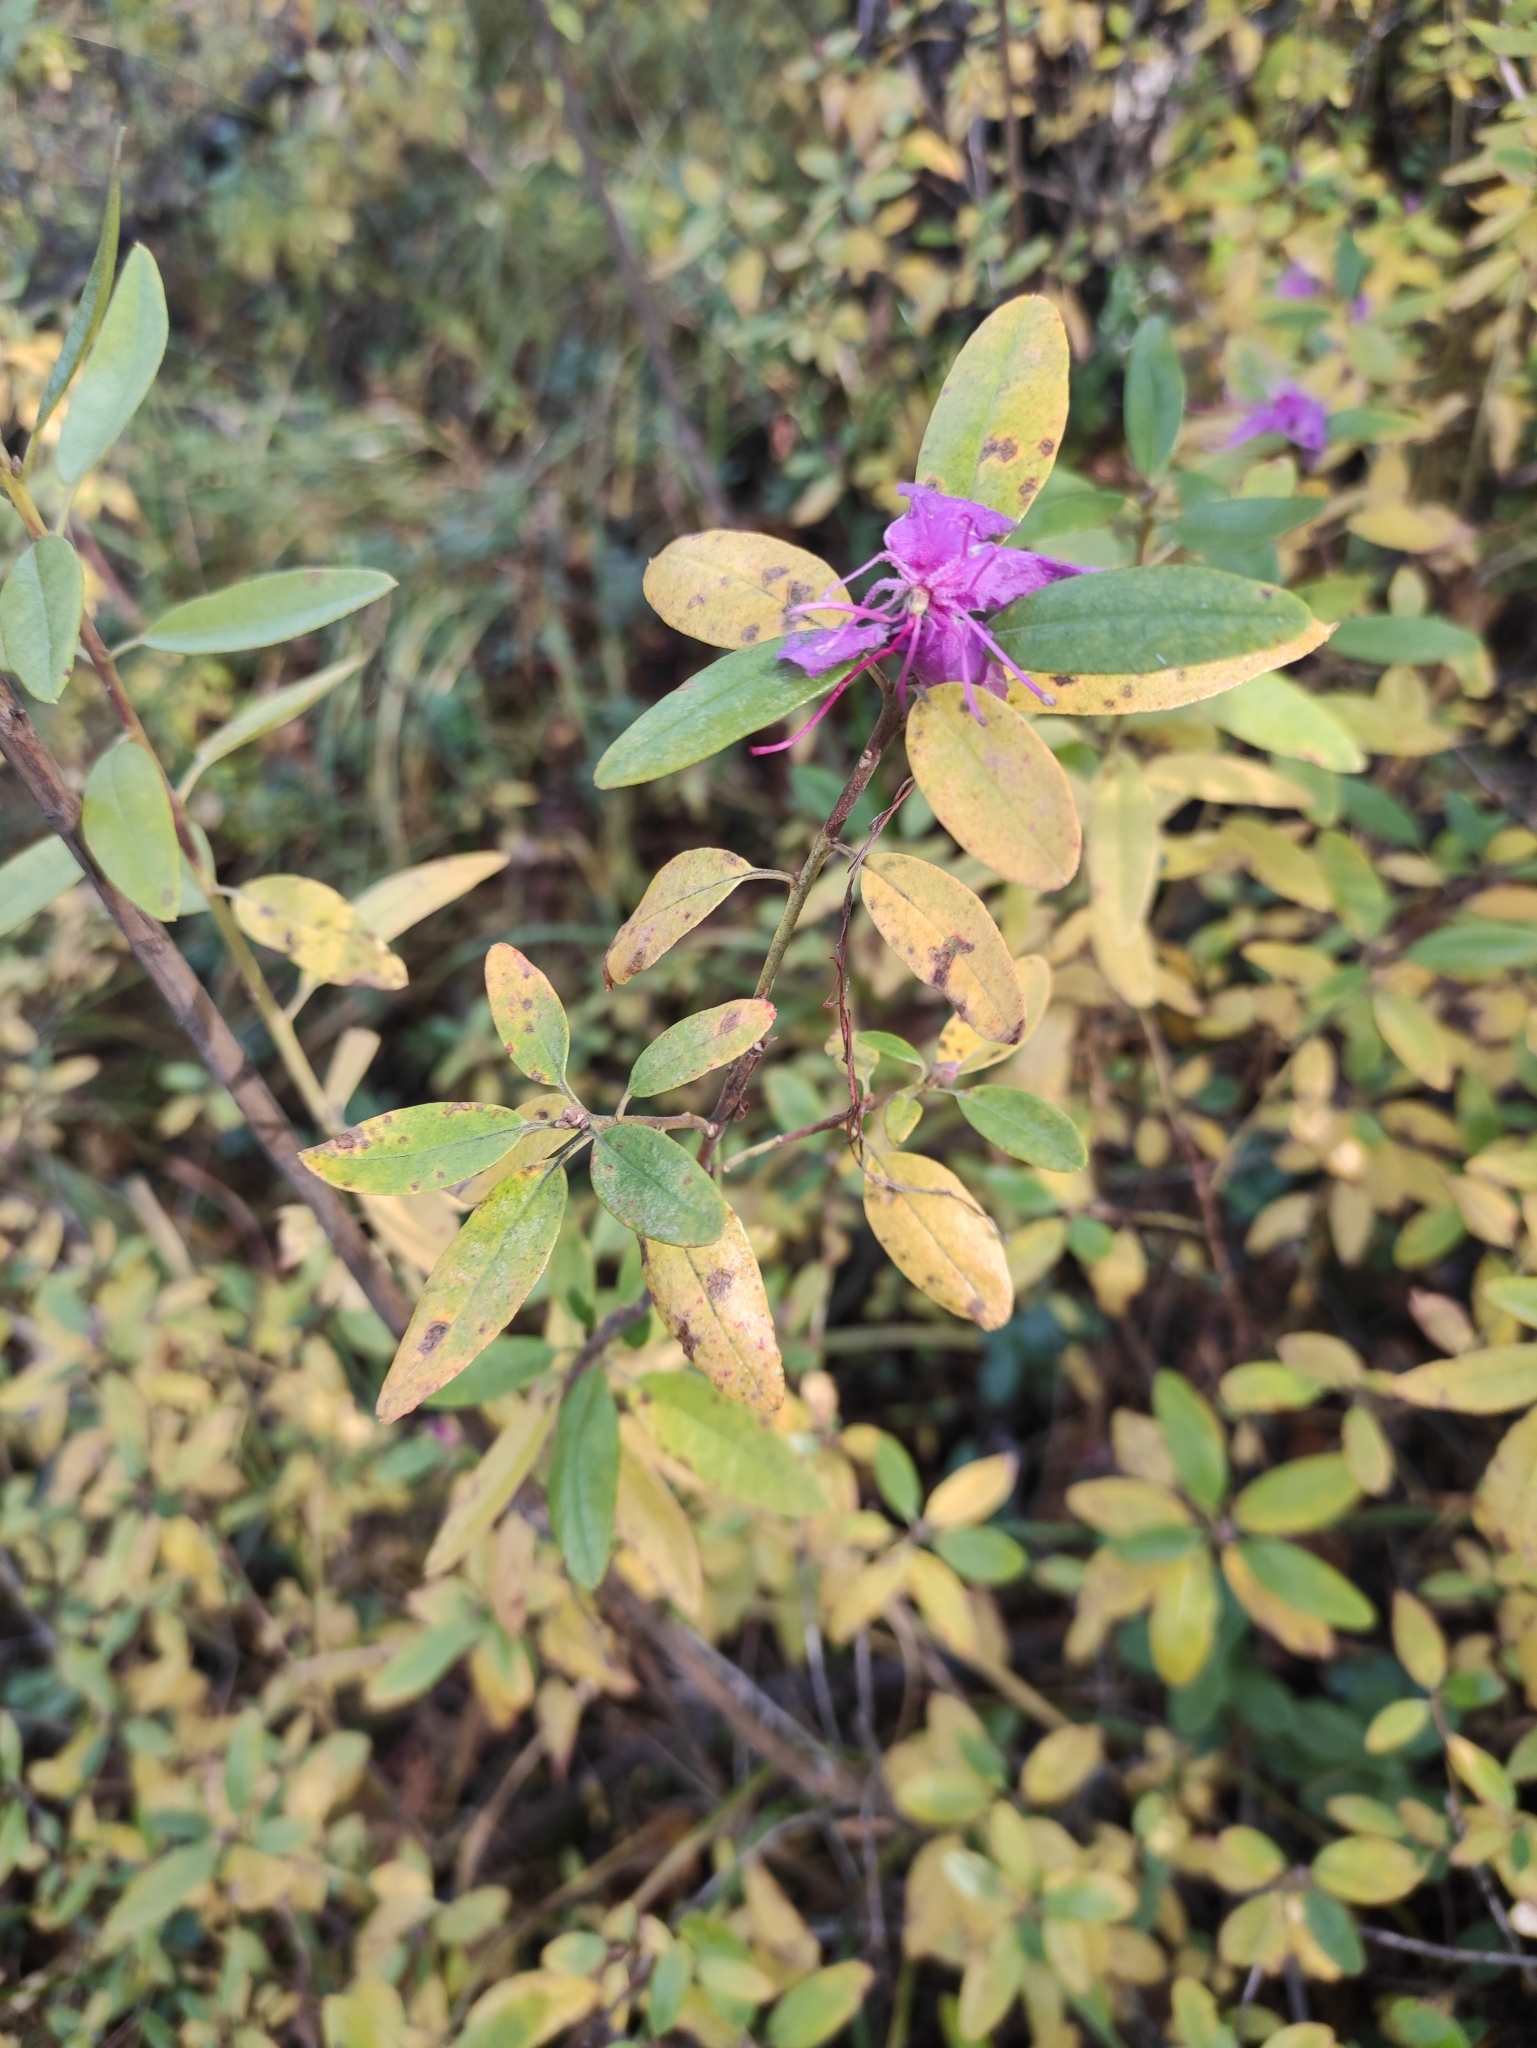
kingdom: Plantae
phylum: Tracheophyta
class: Magnoliopsida
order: Ericales
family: Ericaceae
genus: Rhododendron
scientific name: Rhododendron dauricum
